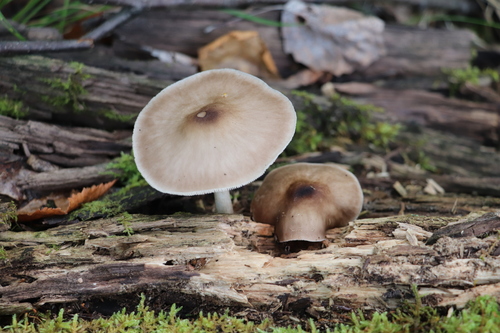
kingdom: Fungi
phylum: Basidiomycota
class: Agaricomycetes
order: Agaricales
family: Pluteaceae
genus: Pluteus
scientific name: Pluteus
